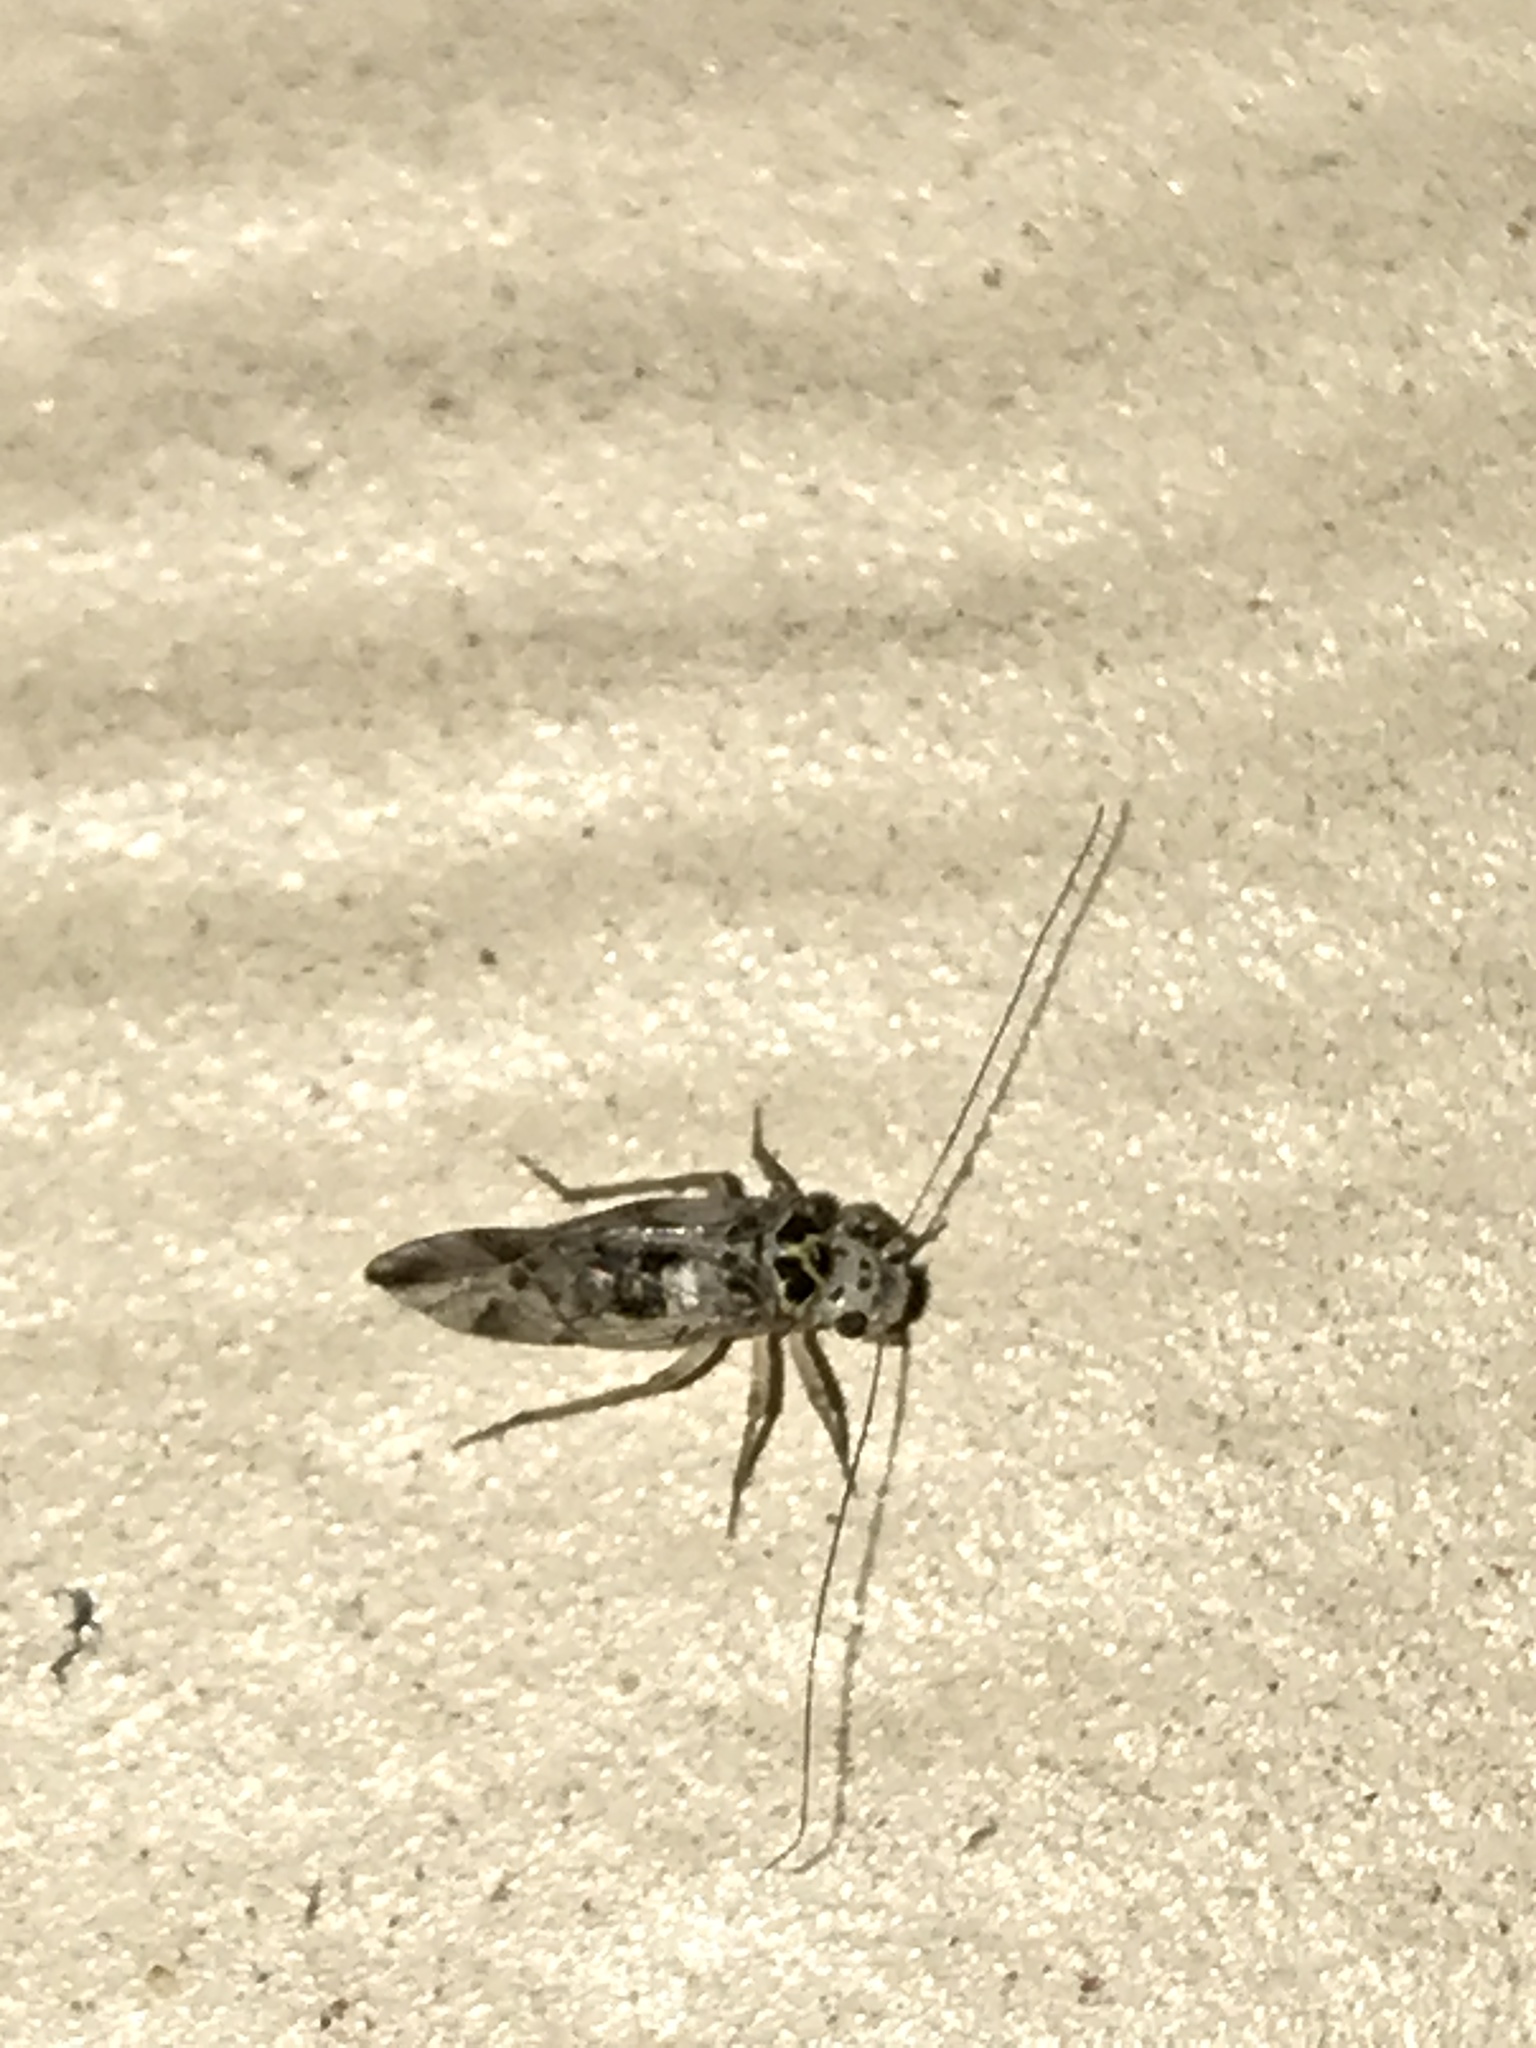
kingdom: Animalia
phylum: Arthropoda
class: Insecta
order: Psocodea
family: Psocidae
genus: Metylophorus
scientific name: Metylophorus novaescotiae
